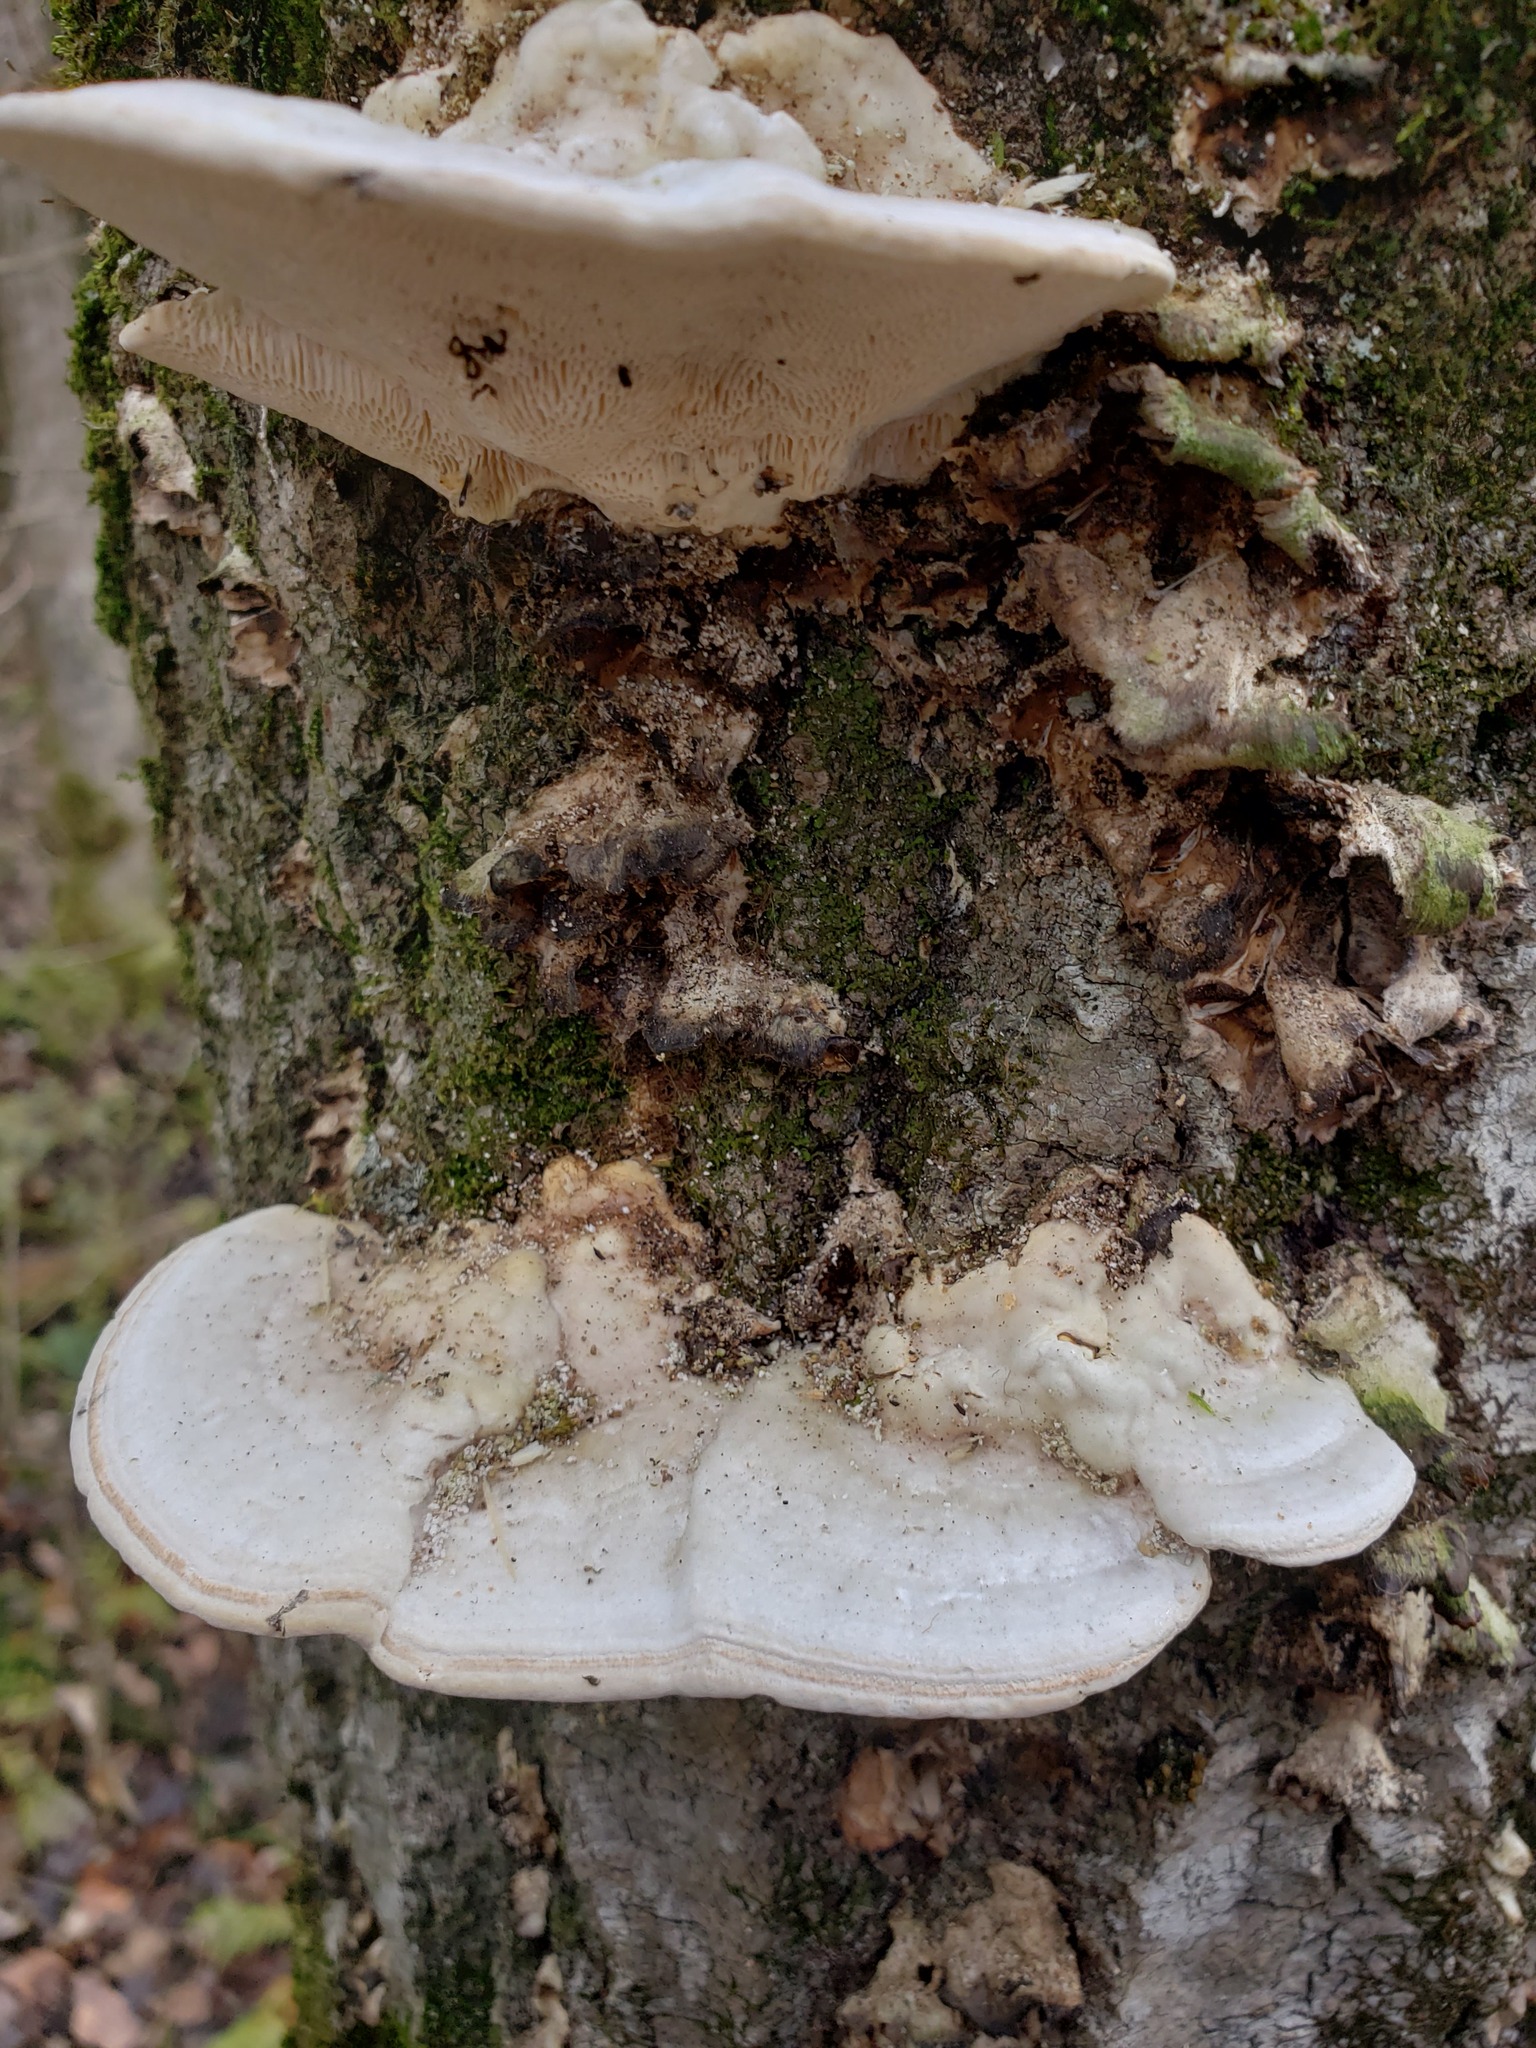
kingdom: Fungi
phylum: Basidiomycota
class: Agaricomycetes
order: Polyporales
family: Polyporaceae
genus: Trametes
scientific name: Trametes gibbosa
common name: Lumpy bracket
